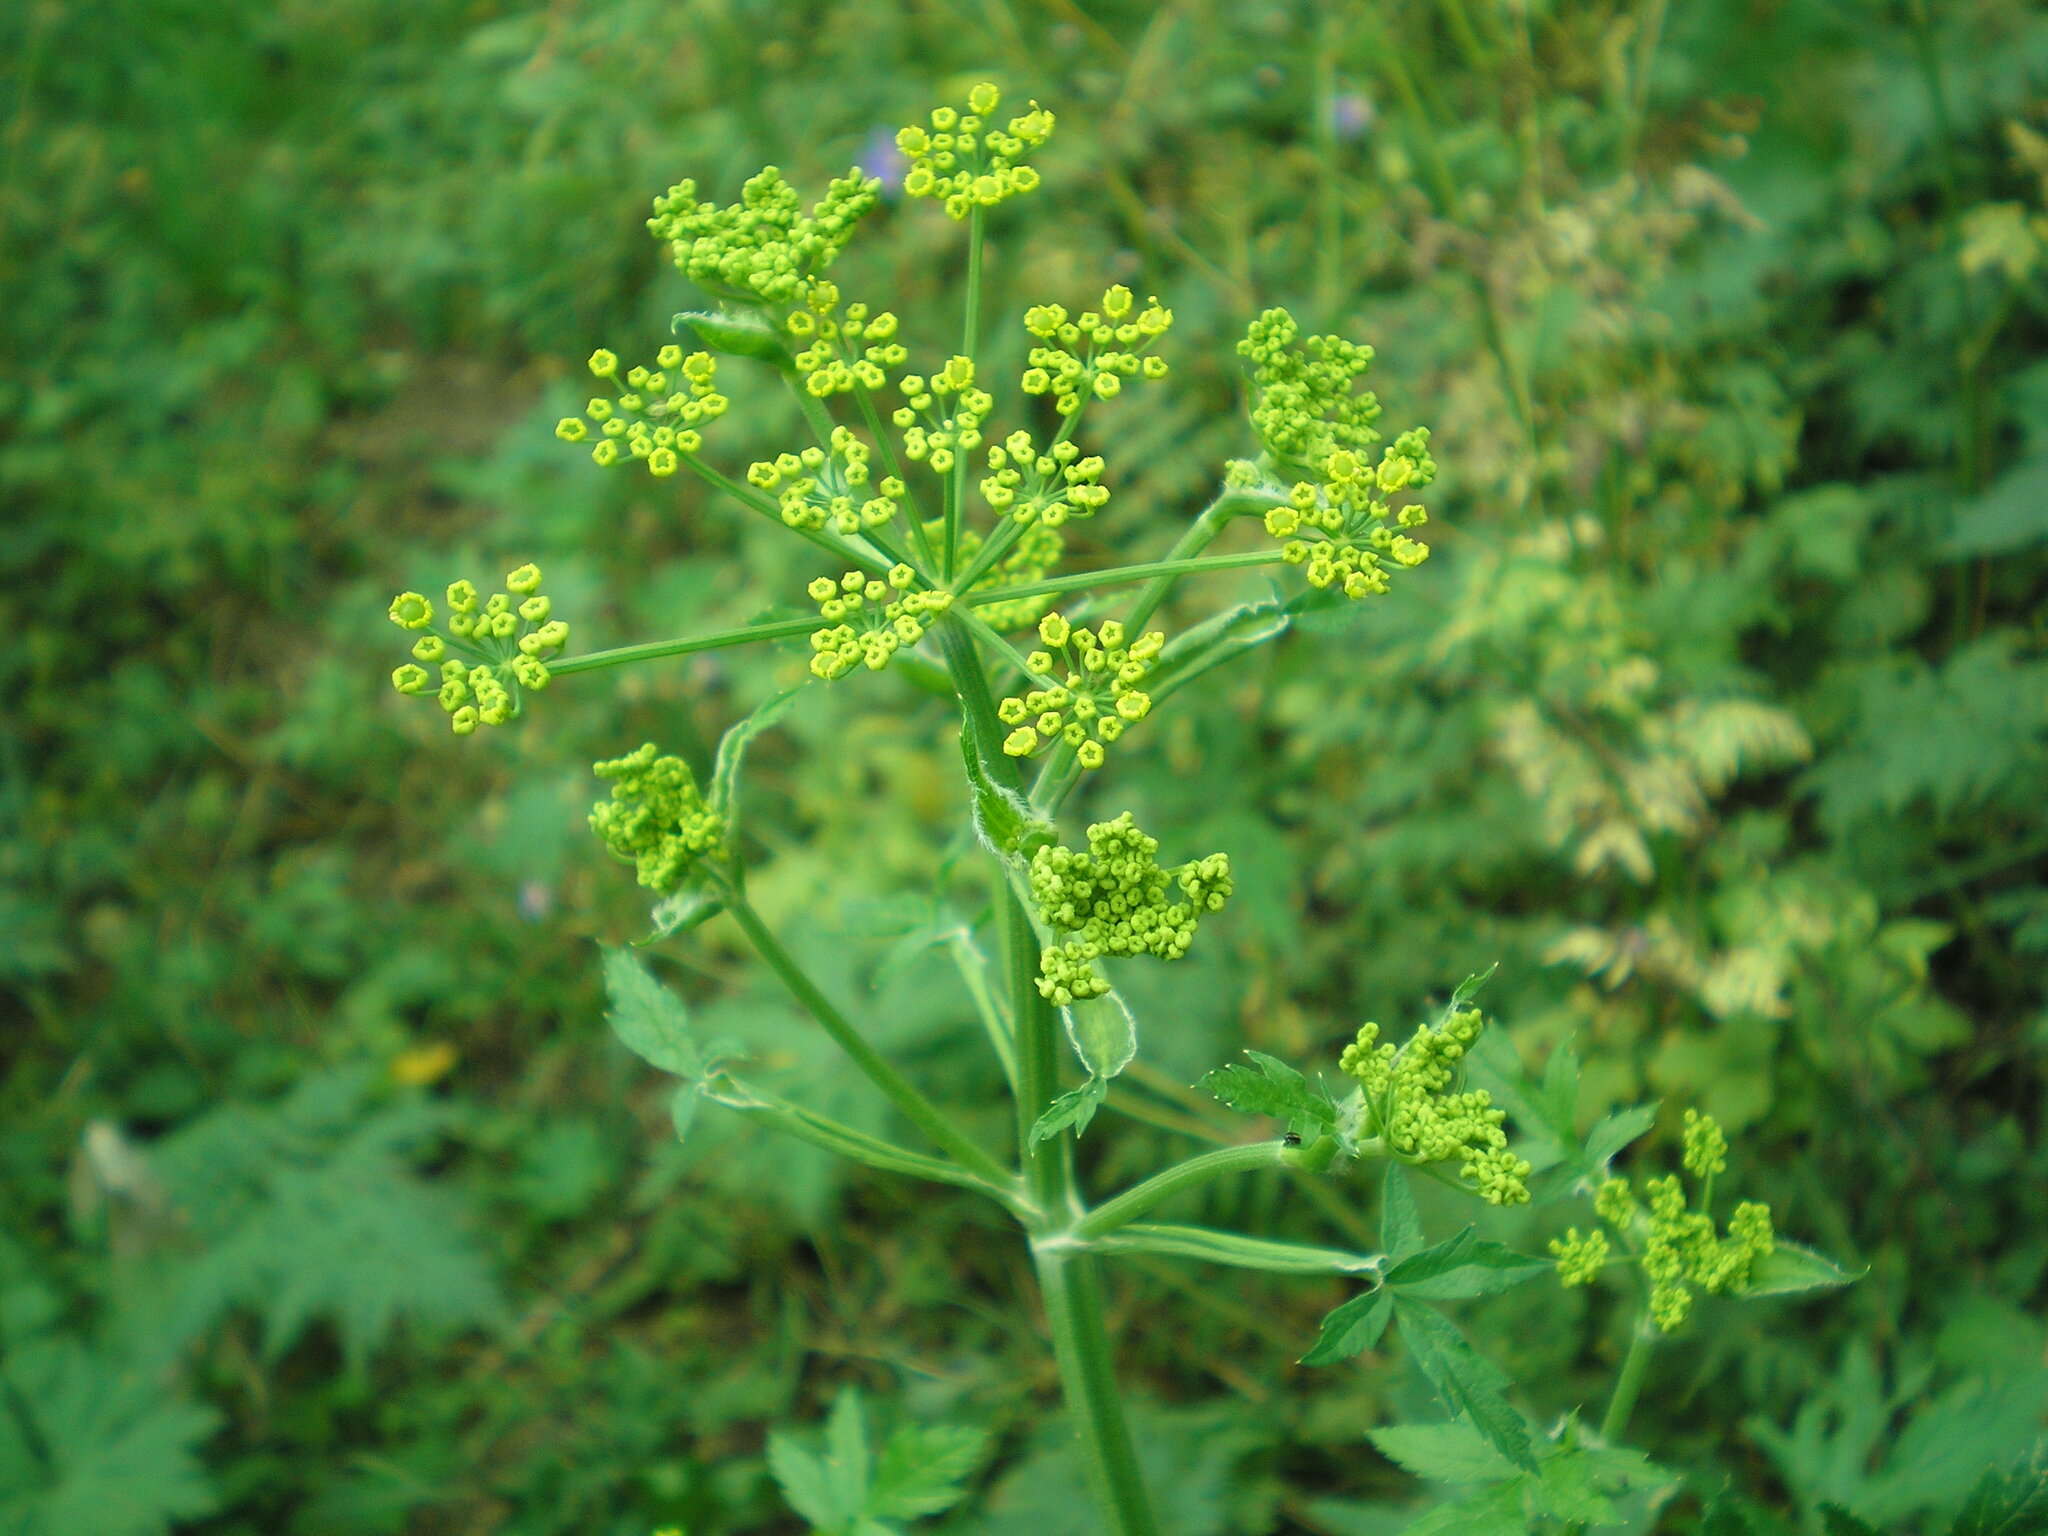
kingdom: Plantae
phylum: Tracheophyta
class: Magnoliopsida
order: Apiales
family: Apiaceae
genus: Pastinaca
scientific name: Pastinaca sativa
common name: Wild parsnip
